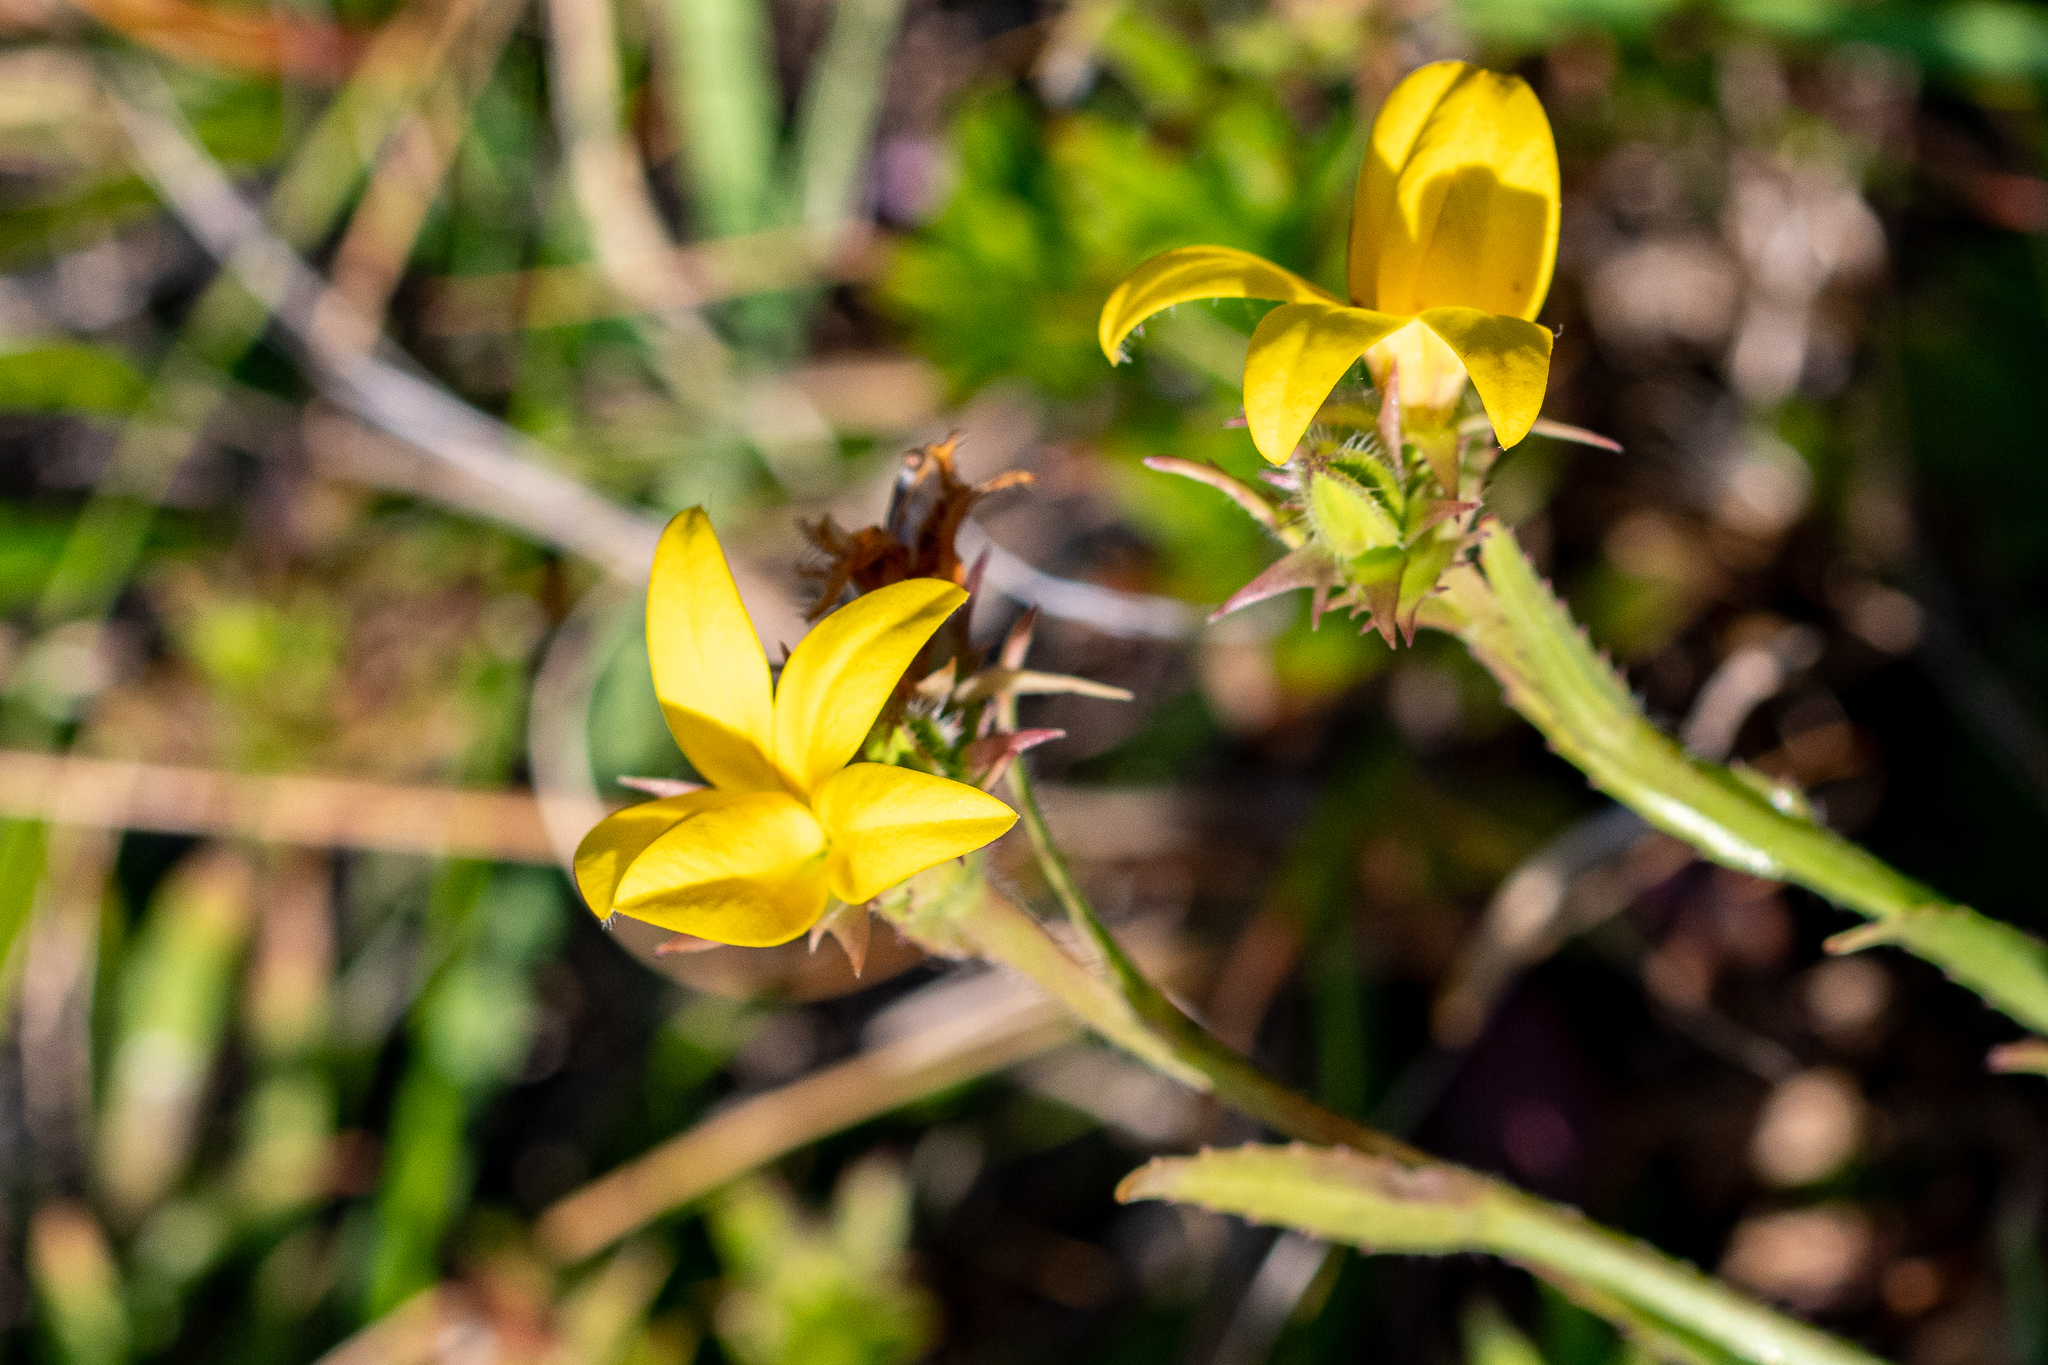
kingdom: Plantae
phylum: Tracheophyta
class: Magnoliopsida
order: Asterales
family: Campanulaceae
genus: Monopsis
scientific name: Monopsis lutea
